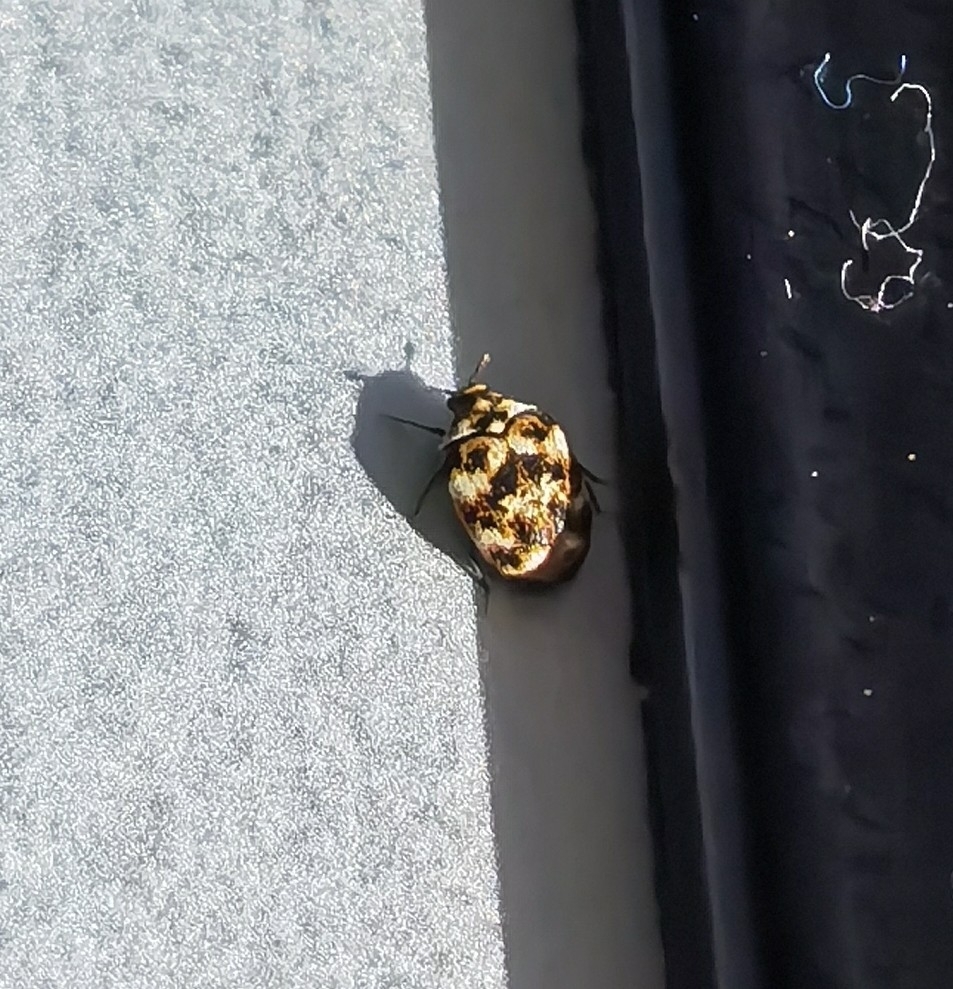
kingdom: Animalia
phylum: Arthropoda
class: Insecta
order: Coleoptera
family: Dermestidae
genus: Anthrenus
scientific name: Anthrenus verbasci
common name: Varied carpet beetle
